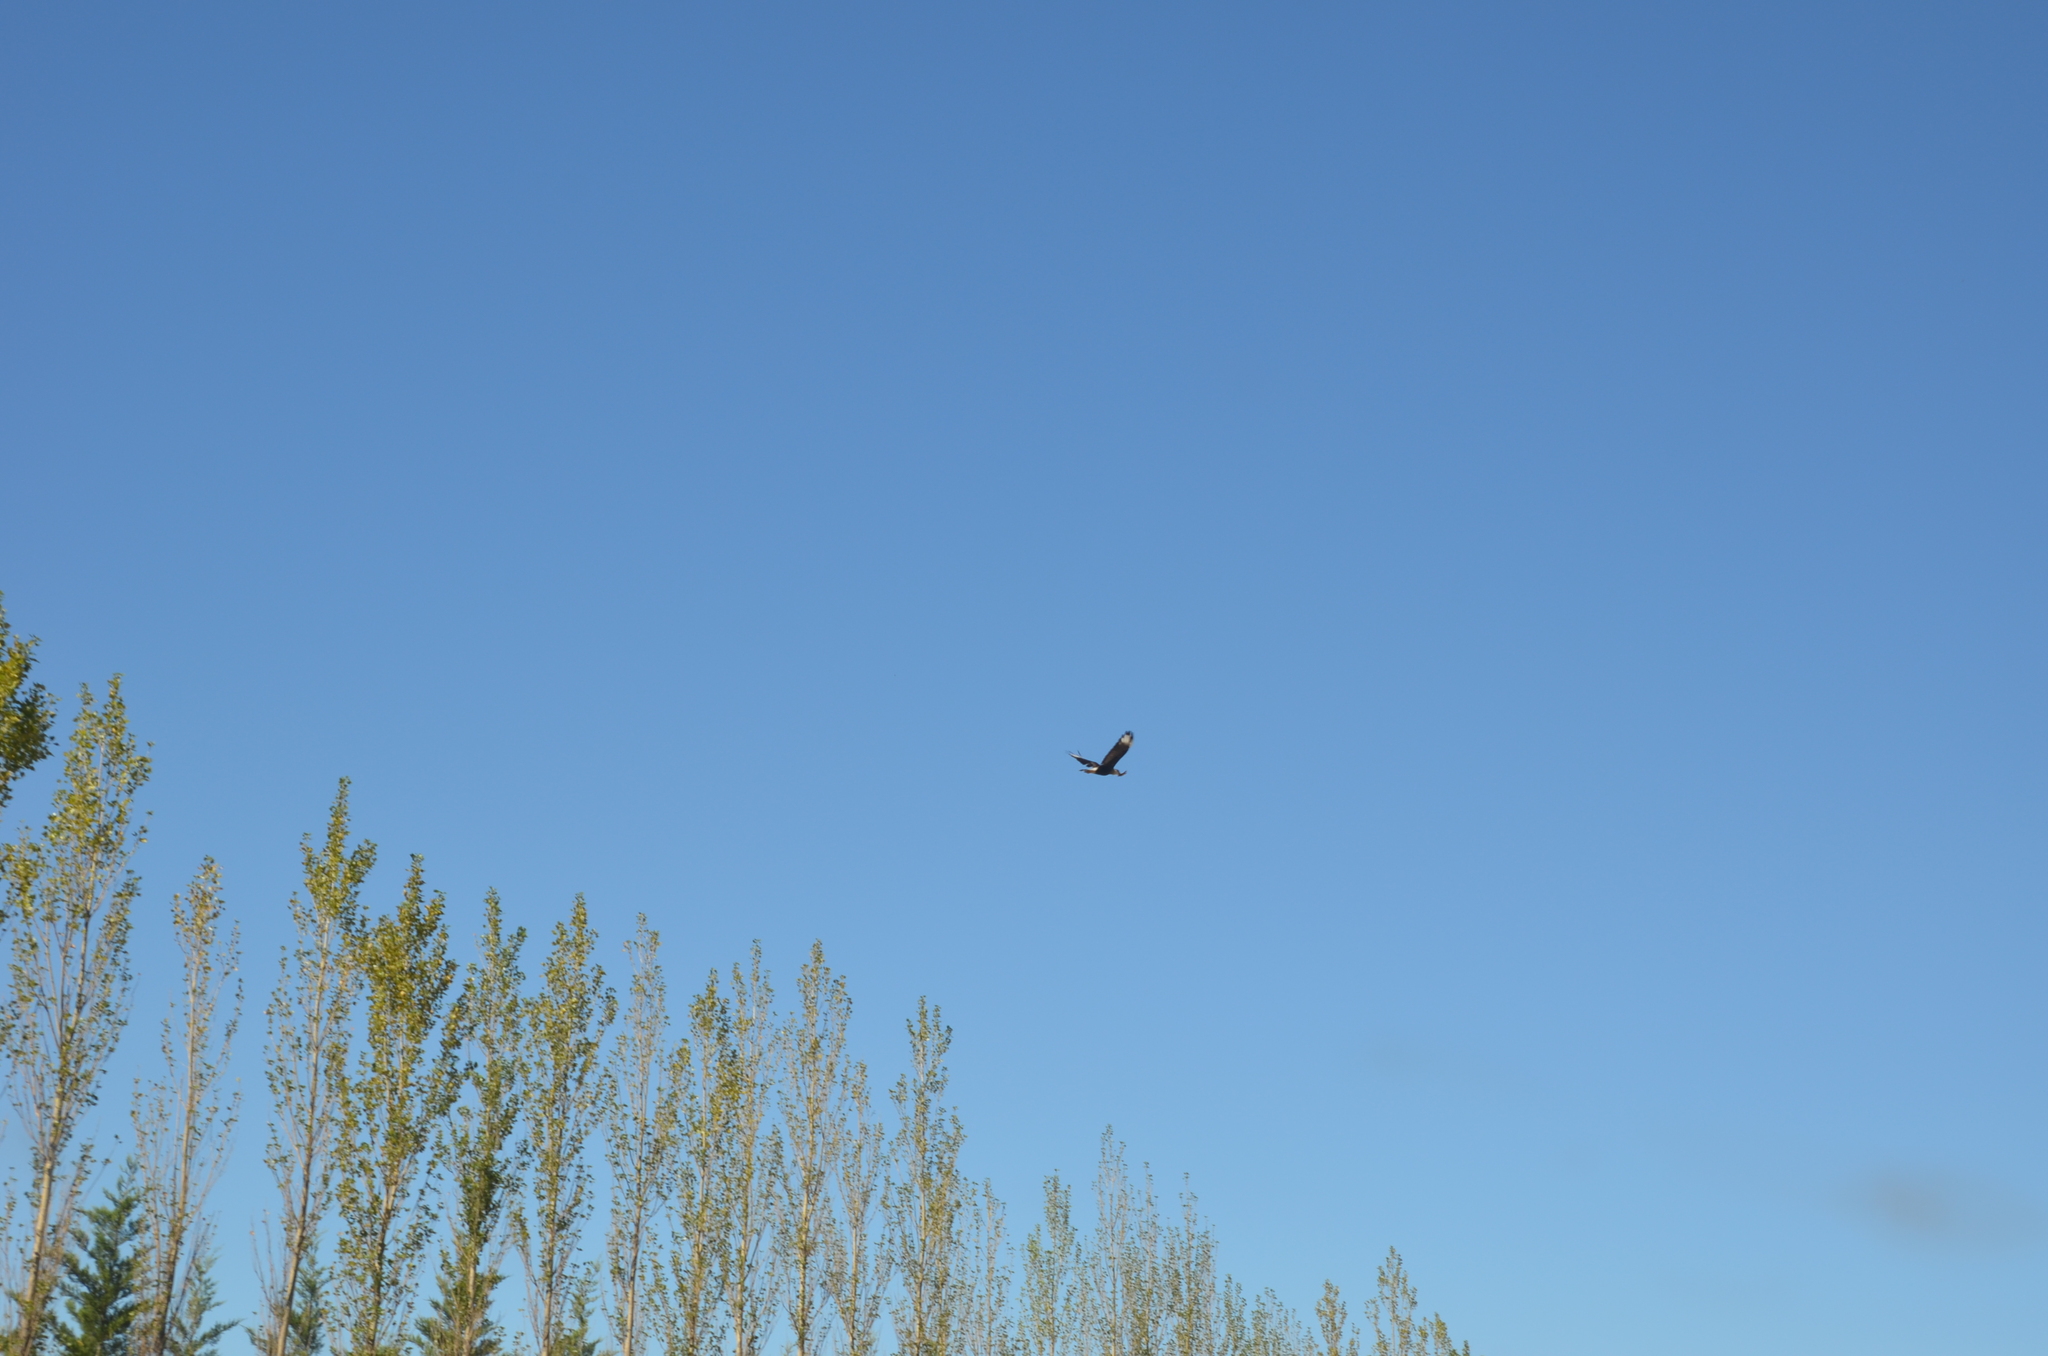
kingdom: Animalia
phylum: Chordata
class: Aves
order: Falconiformes
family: Falconidae
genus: Caracara
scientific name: Caracara plancus
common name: Southern caracara
